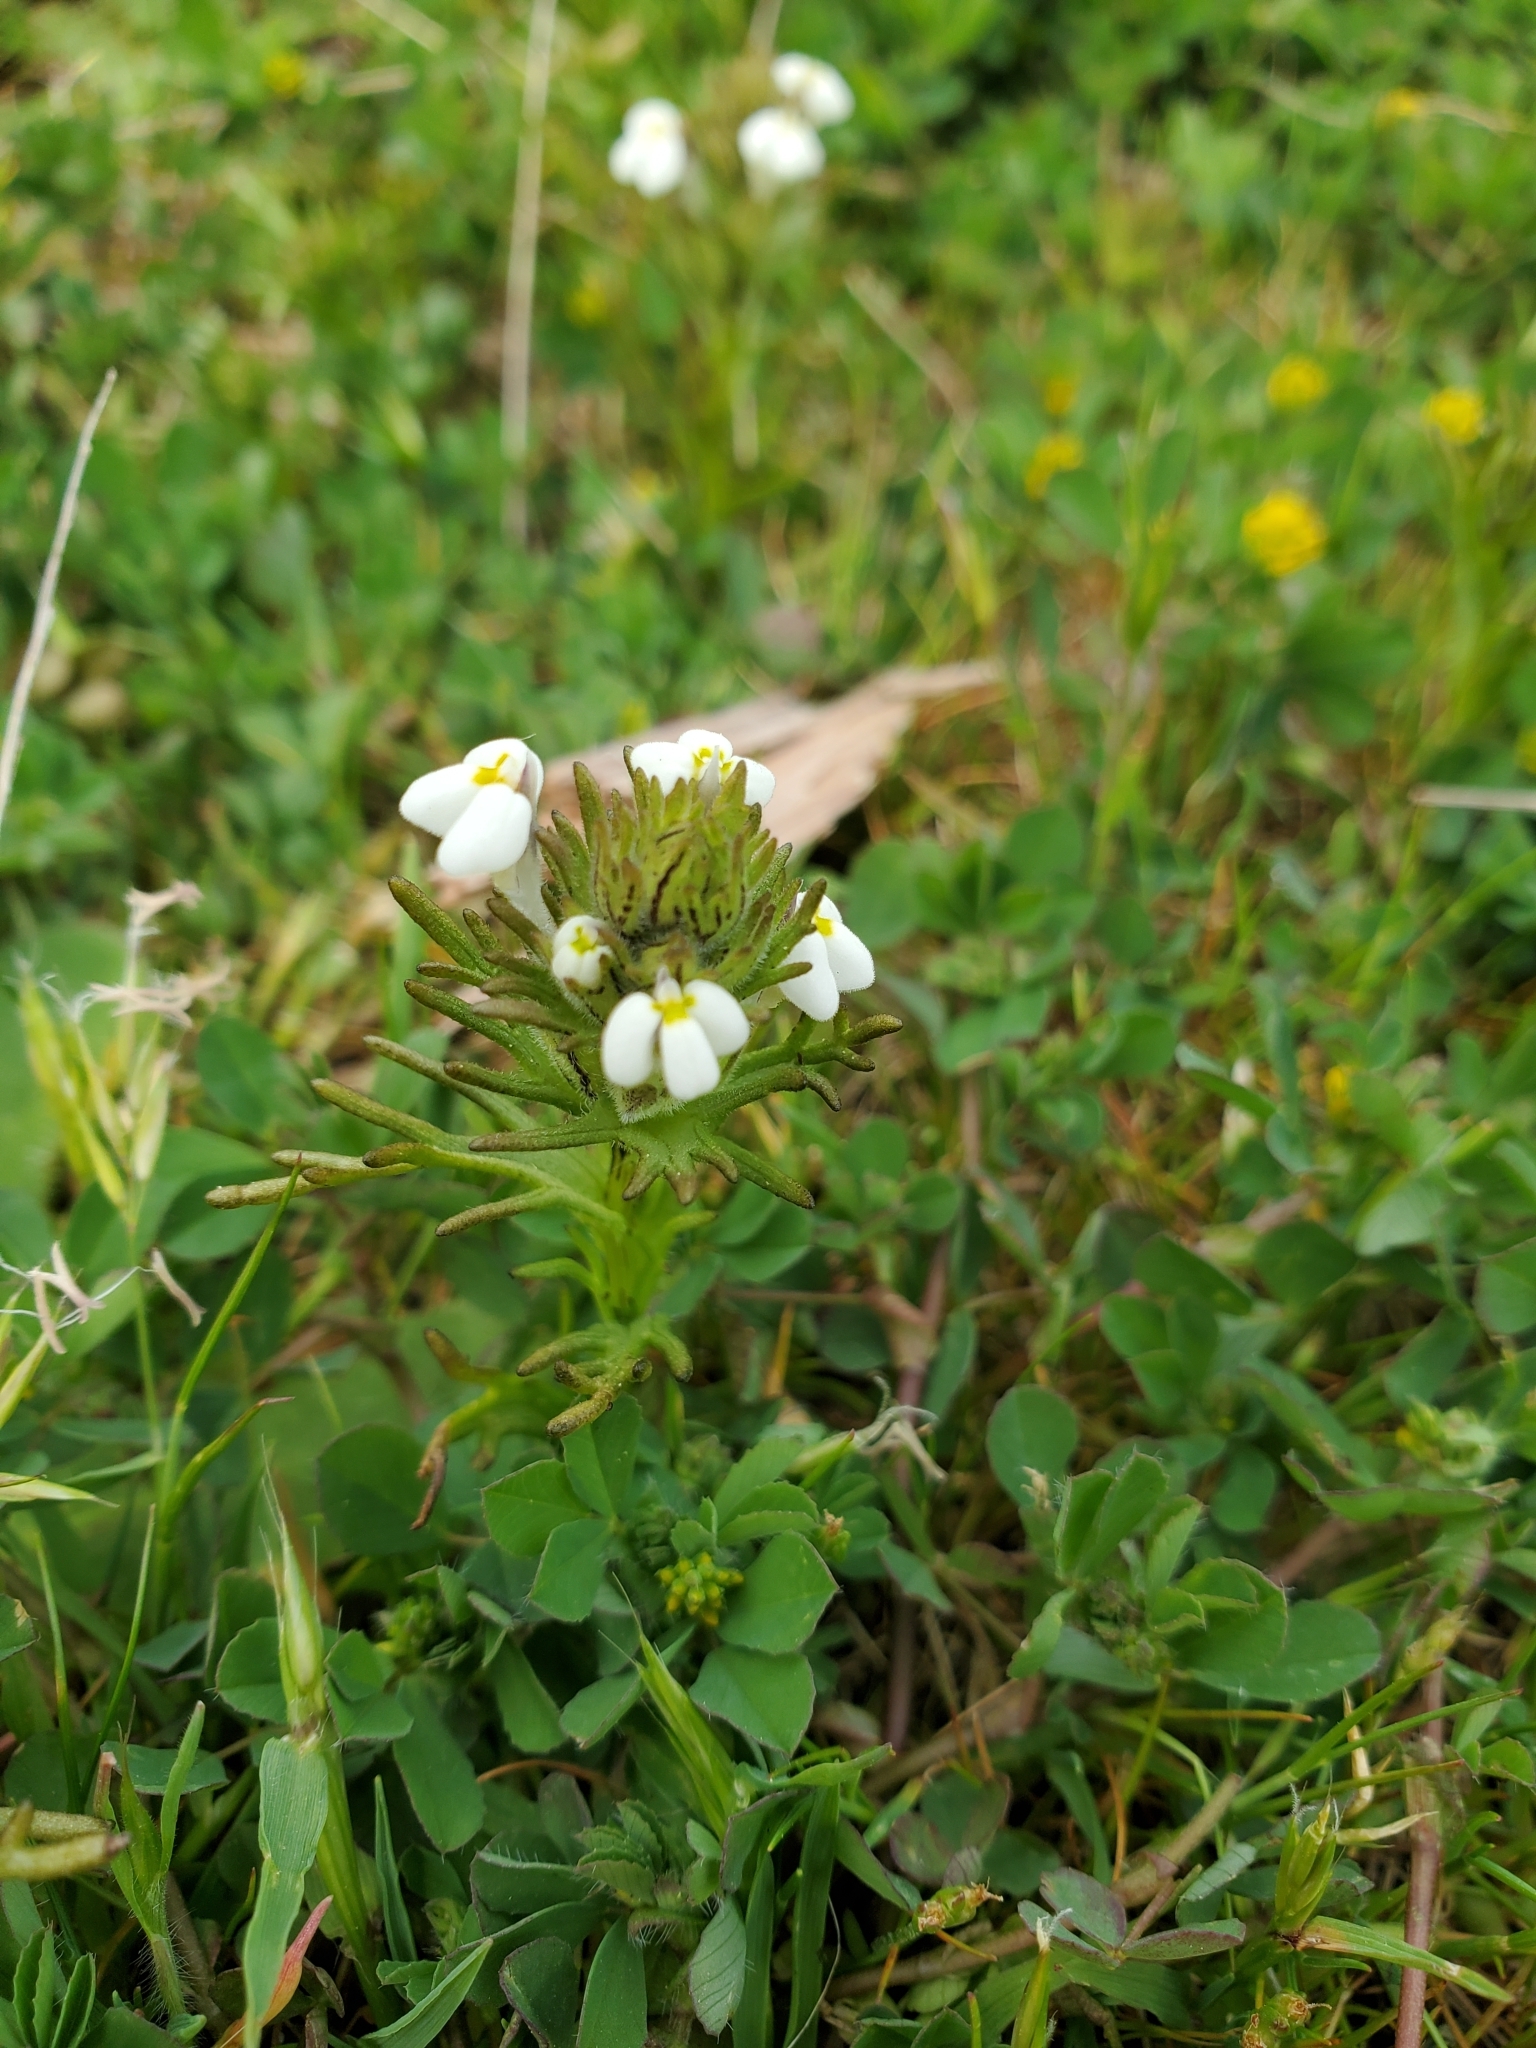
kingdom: Plantae
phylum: Tracheophyta
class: Magnoliopsida
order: Lamiales
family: Orobanchaceae
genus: Triphysaria
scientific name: Triphysaria versicolor
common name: Bearded false owl-clover
